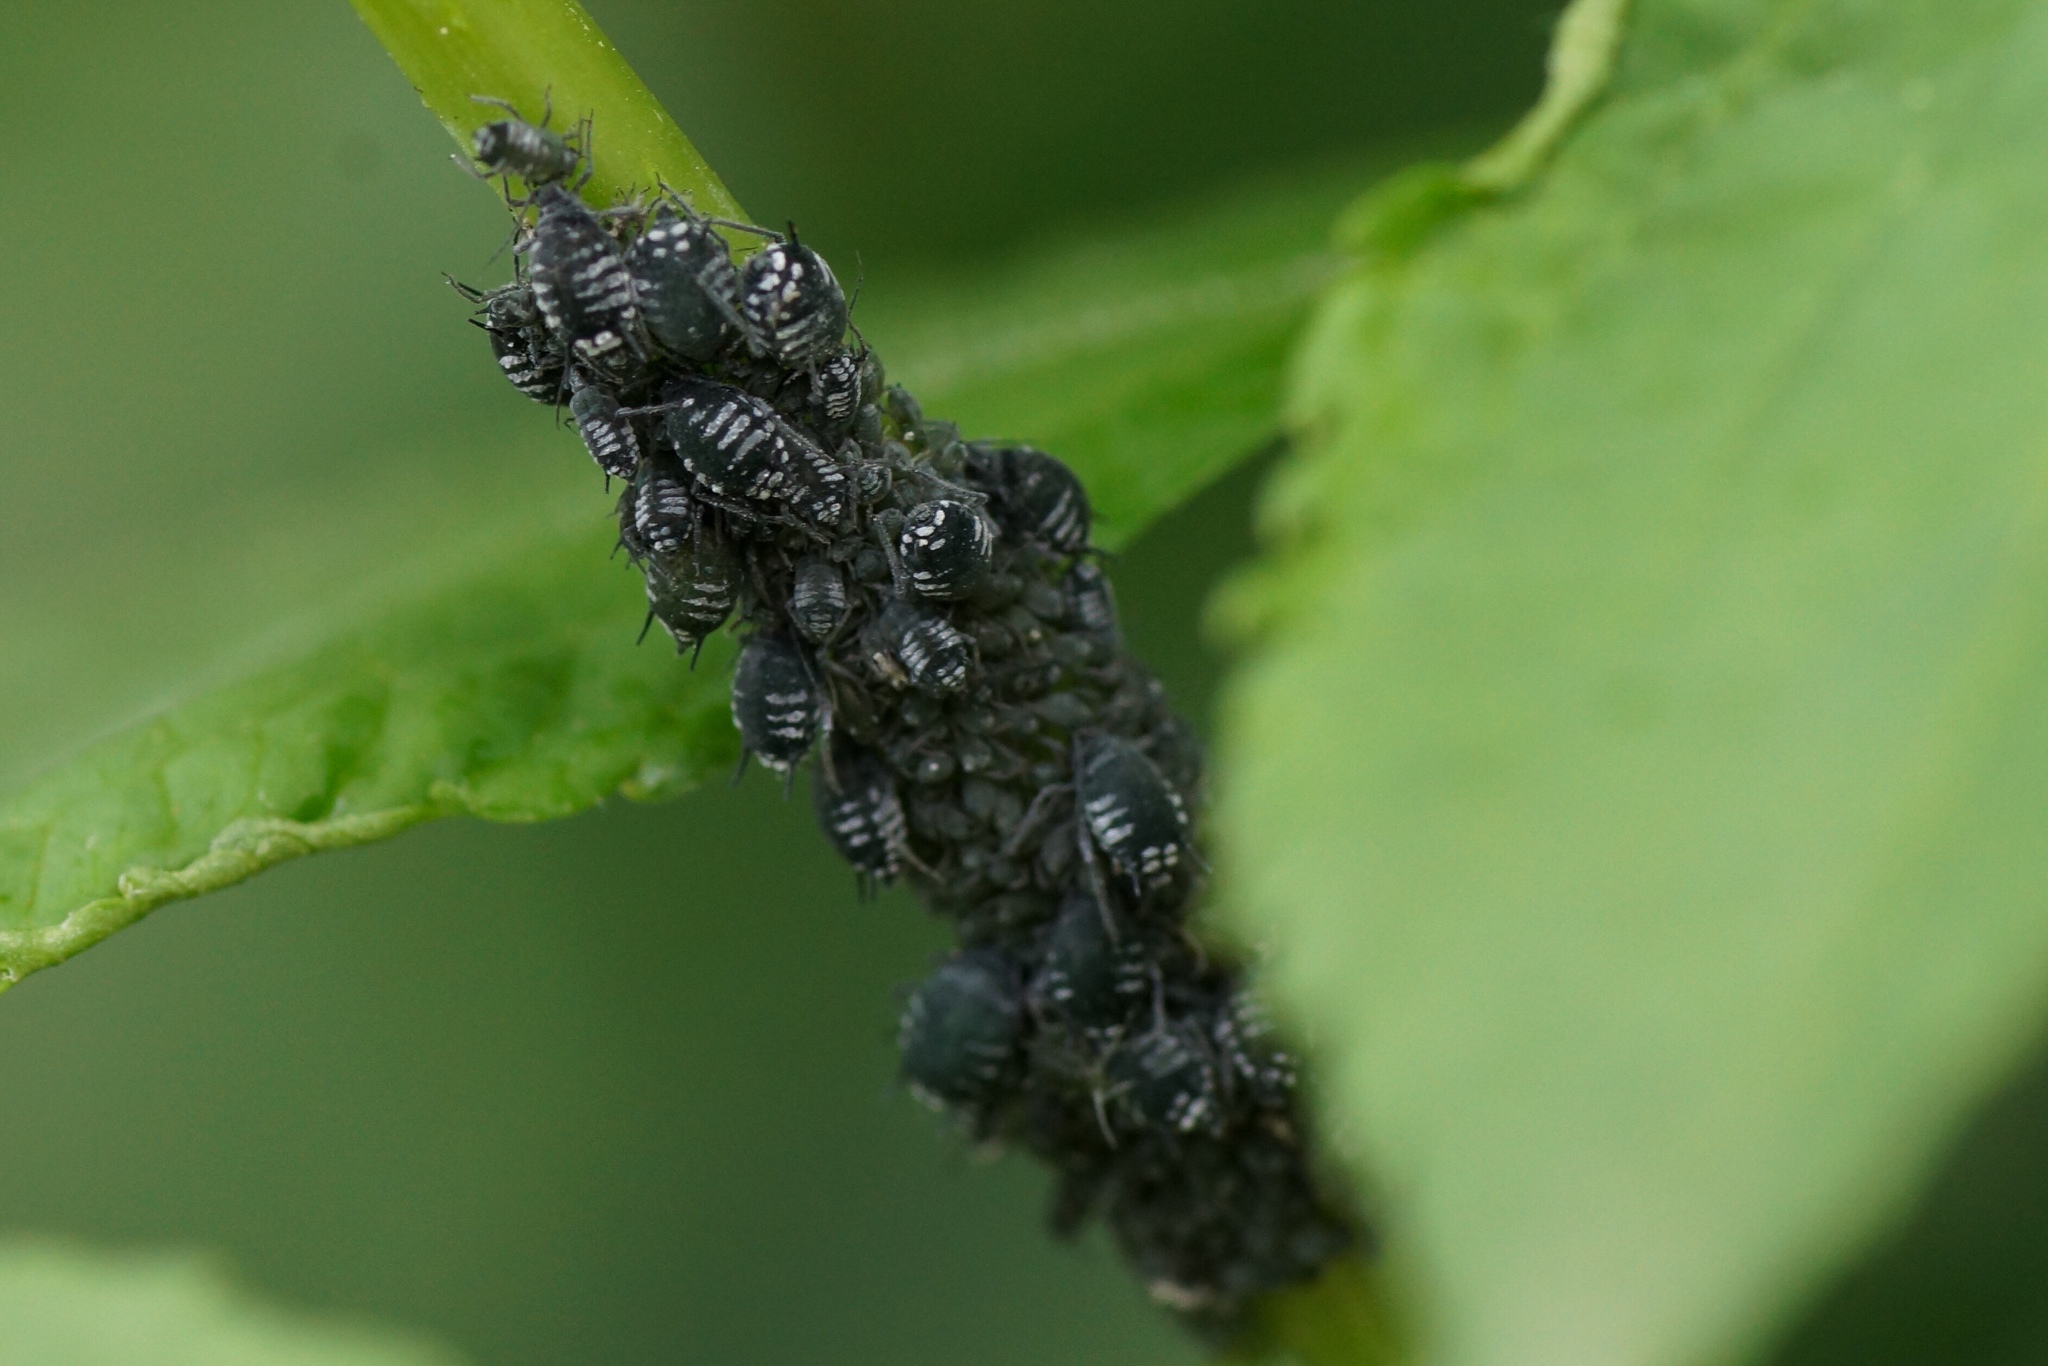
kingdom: Animalia
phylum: Arthropoda
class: Insecta
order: Hemiptera
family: Aphididae
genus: Aphis
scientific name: Aphis sambuci
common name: Elder aphid
